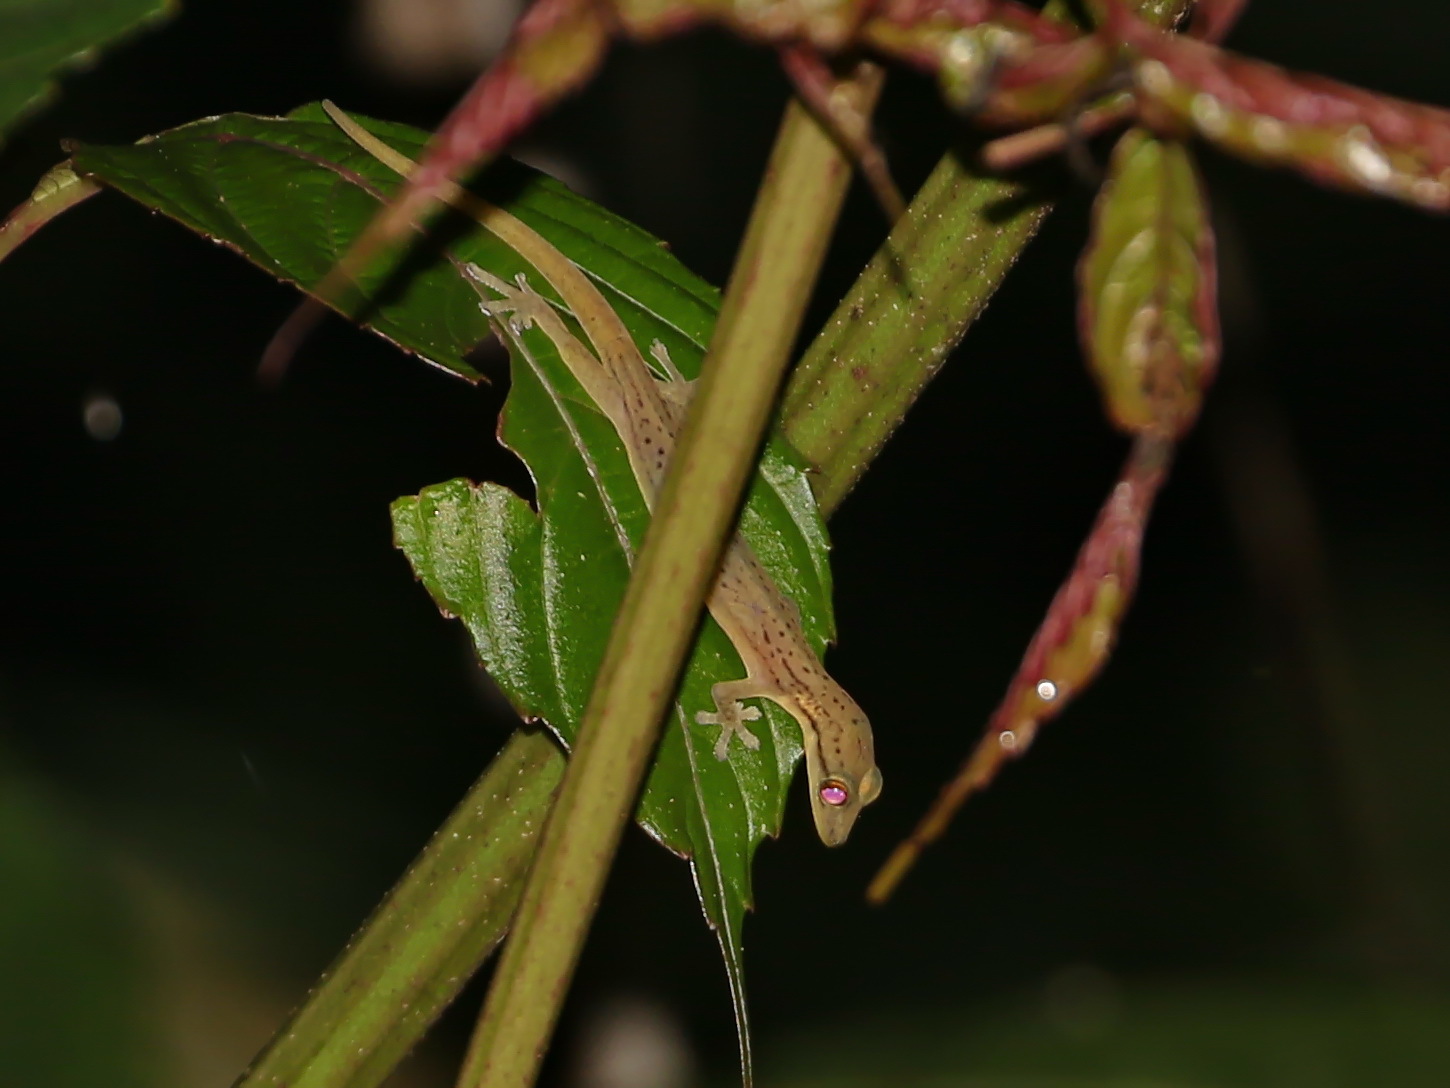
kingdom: Animalia
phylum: Chordata
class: Squamata
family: Gekkonidae
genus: Hemiphyllodactylus
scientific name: Hemiphyllodactylus pardalis
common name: Spotted slender gecko
